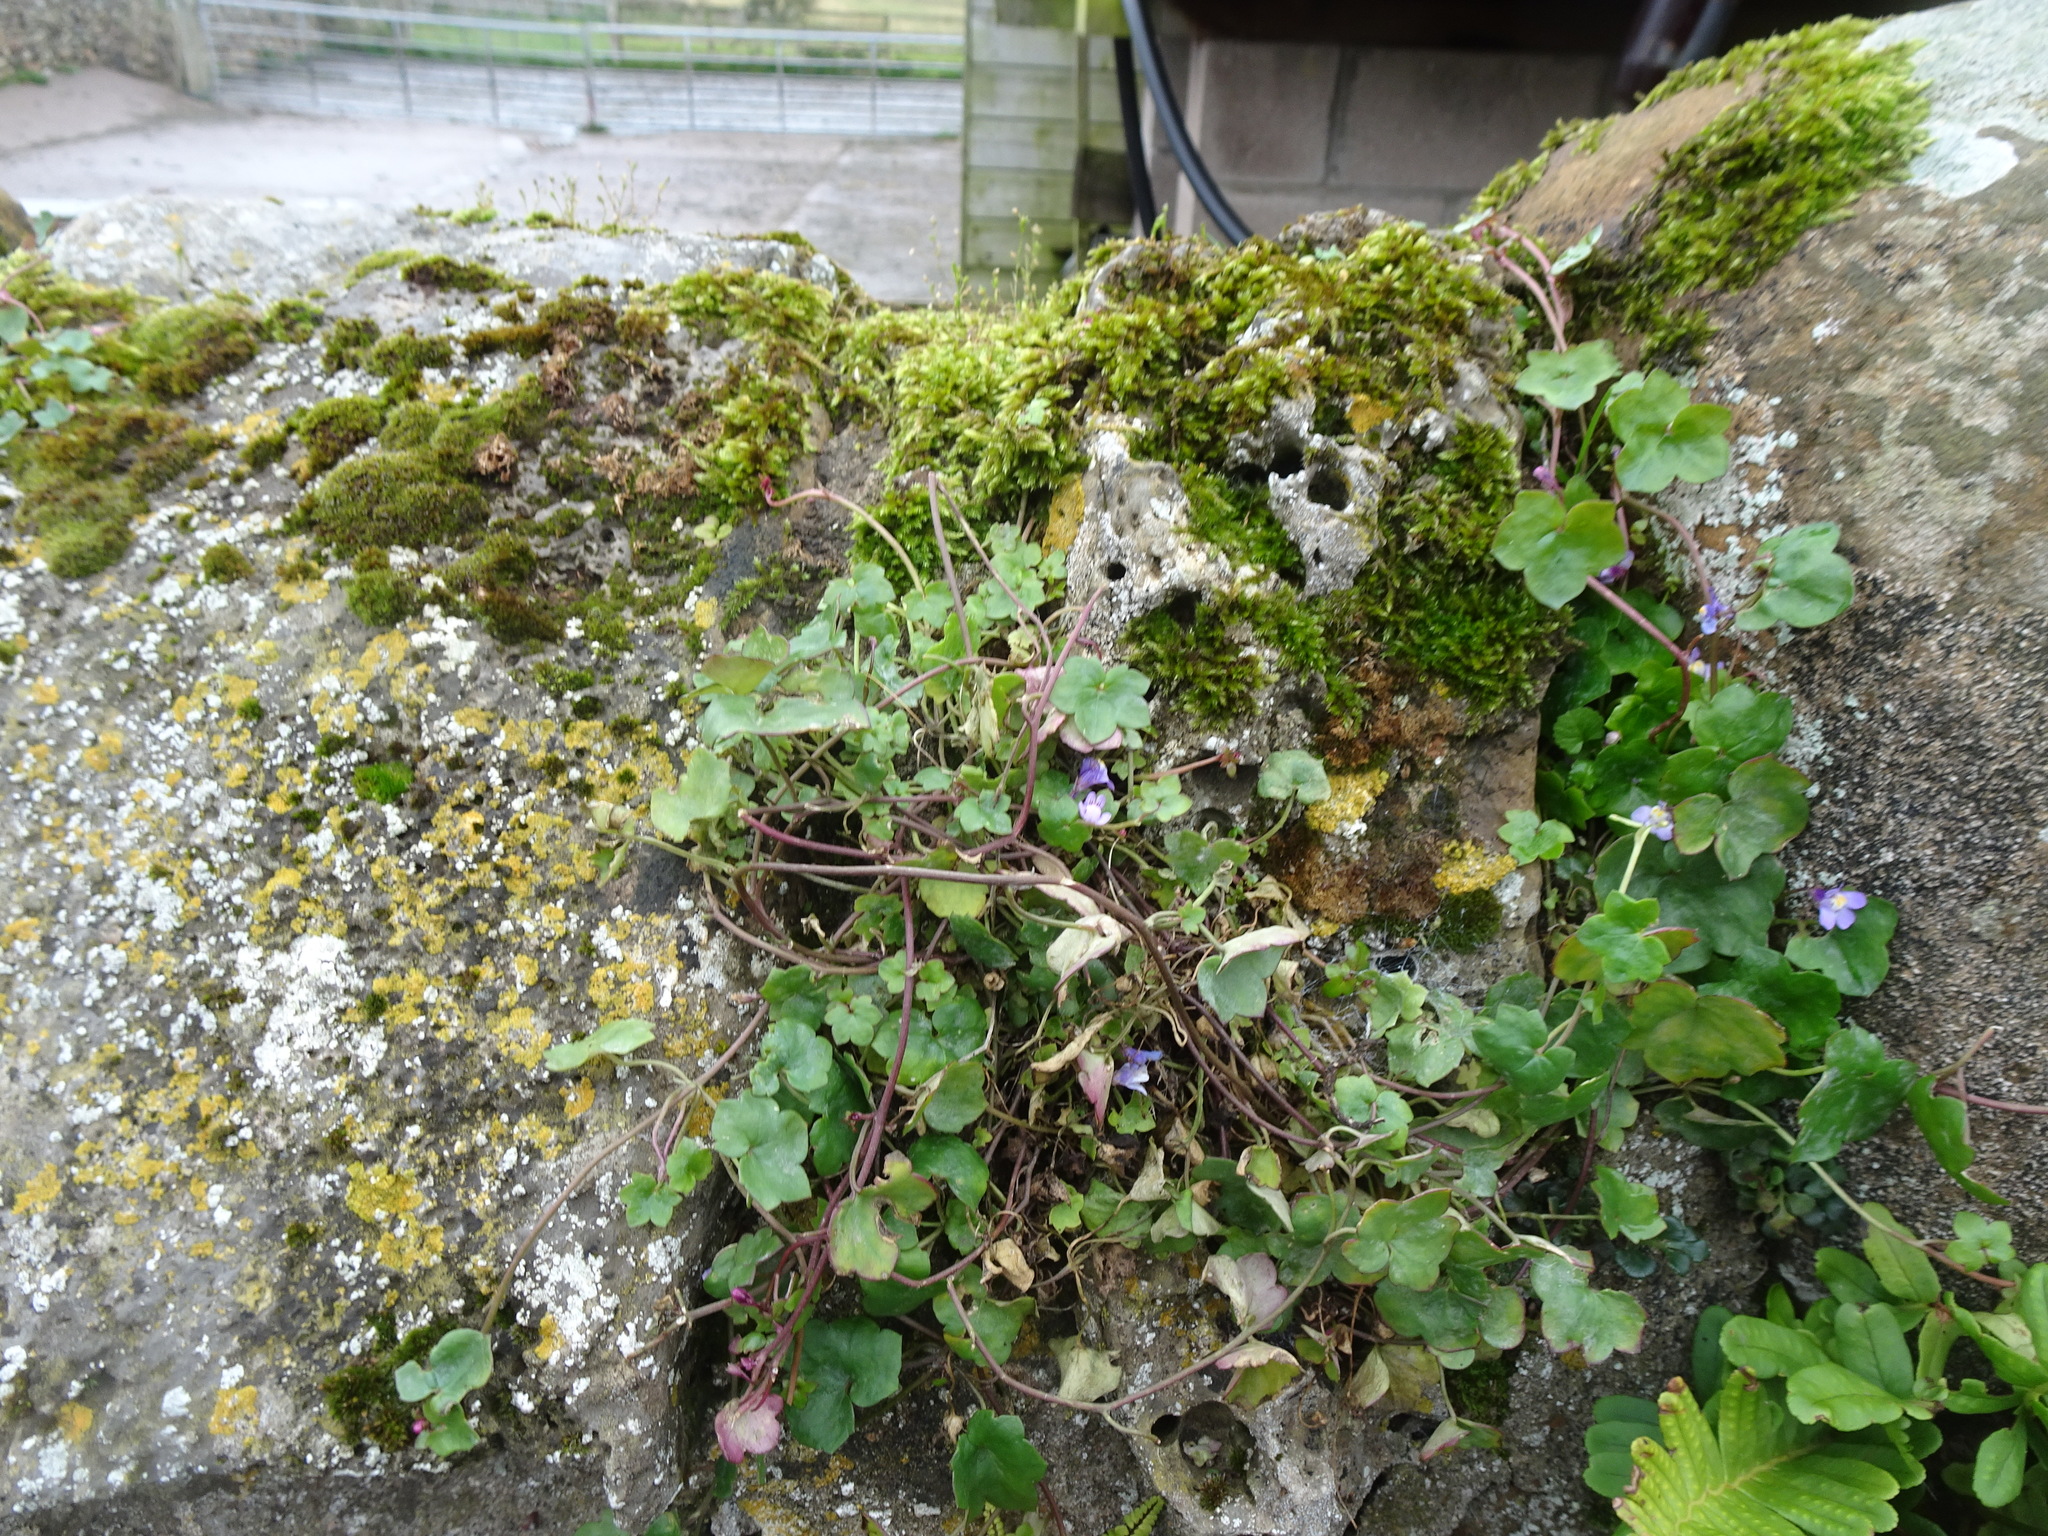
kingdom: Plantae
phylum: Tracheophyta
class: Magnoliopsida
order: Lamiales
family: Plantaginaceae
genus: Cymbalaria
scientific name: Cymbalaria muralis
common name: Ivy-leaved toadflax
